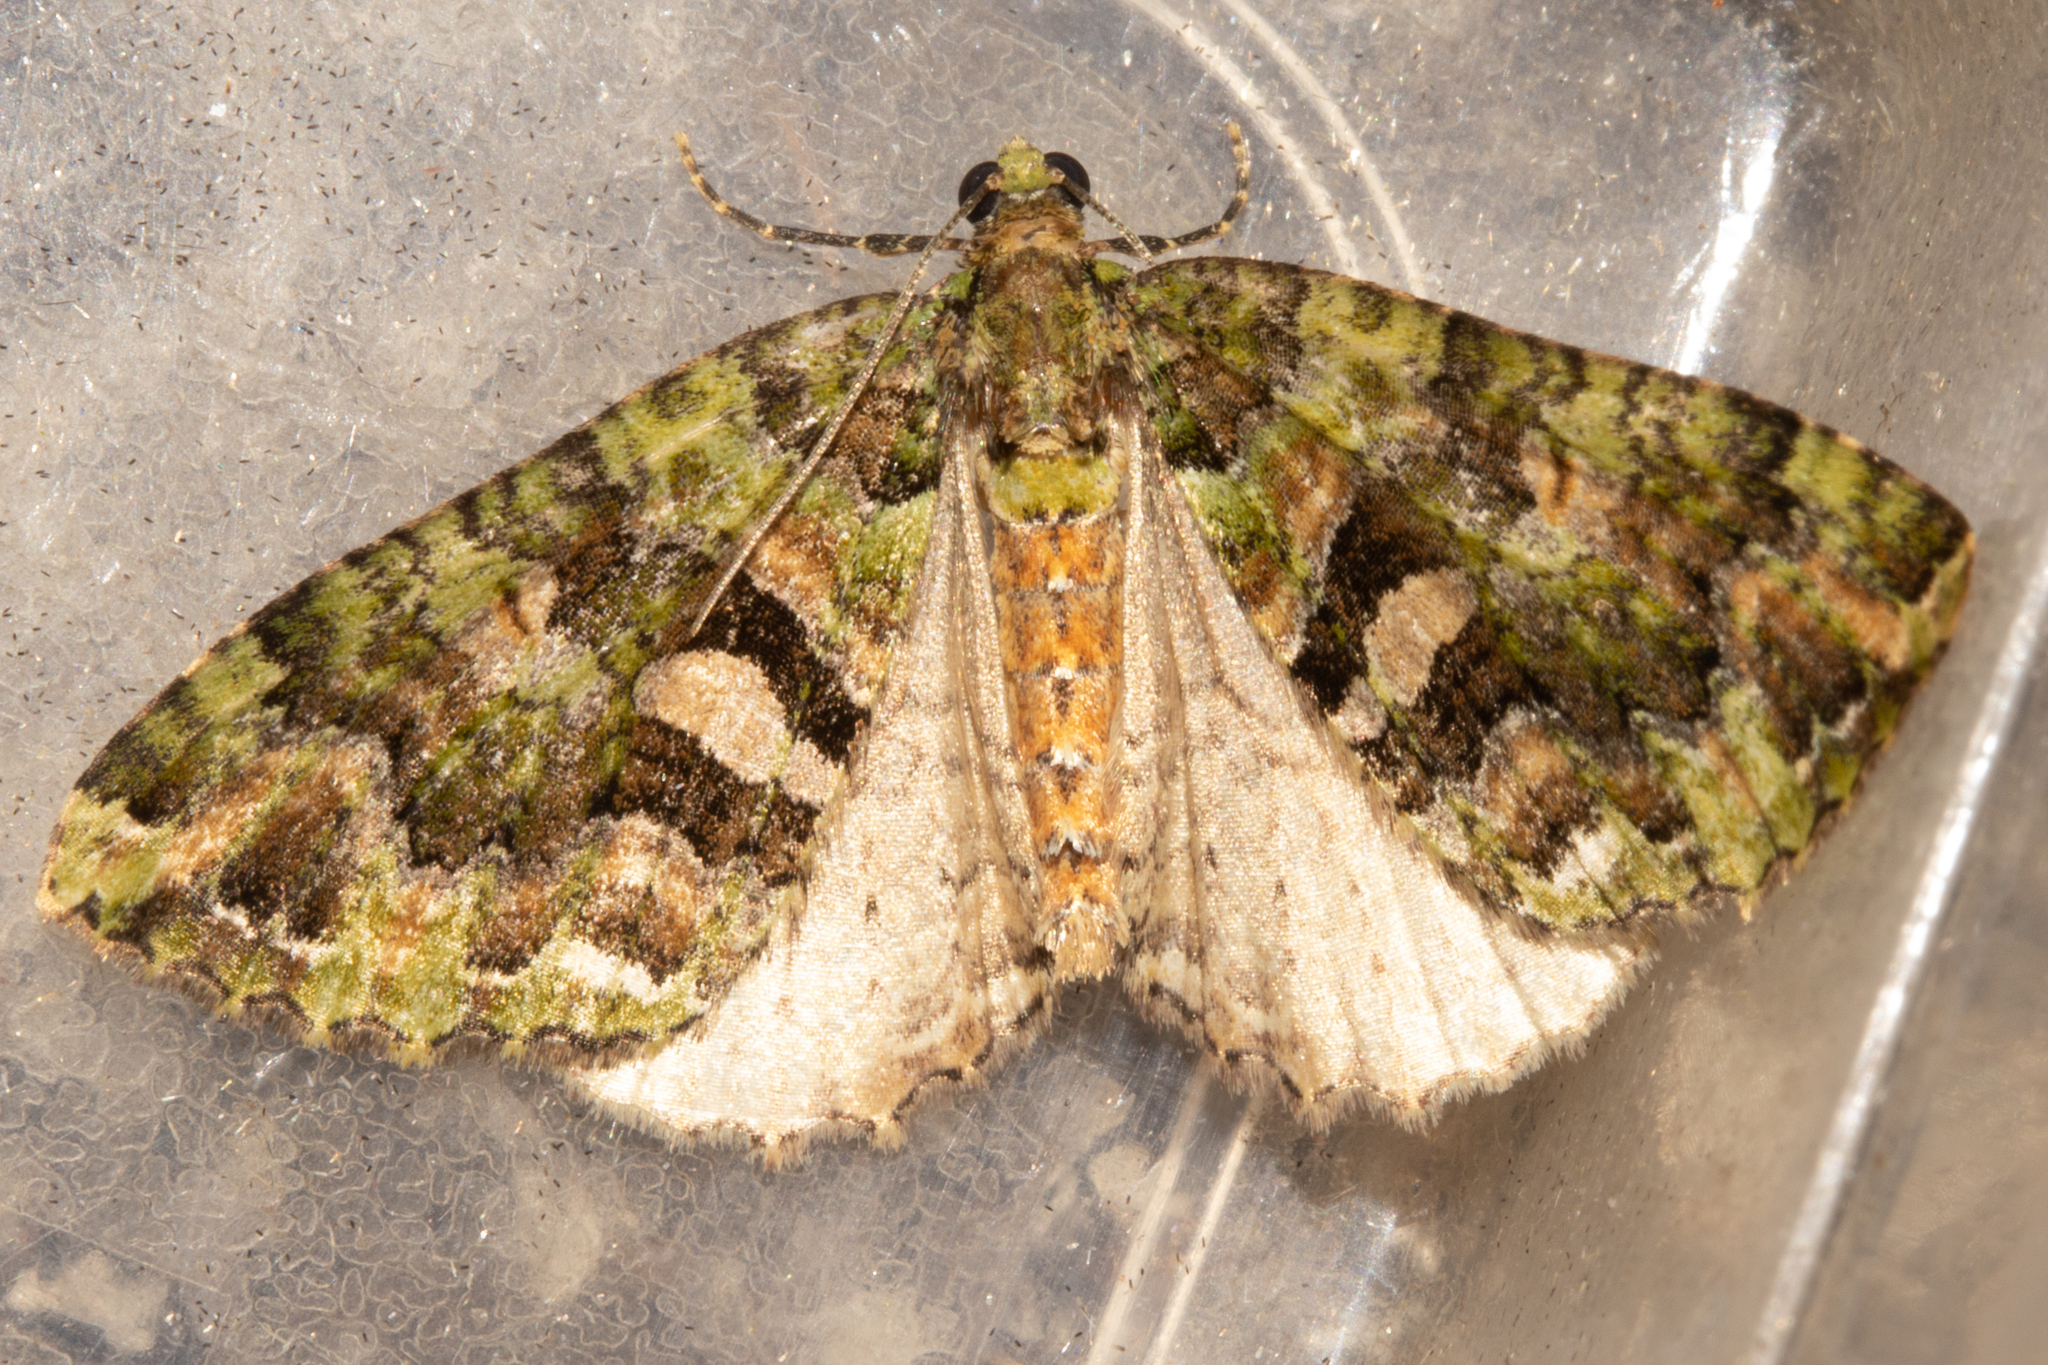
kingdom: Animalia
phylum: Arthropoda
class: Insecta
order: Lepidoptera
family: Geometridae
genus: Austrocidaria
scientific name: Austrocidaria similata
